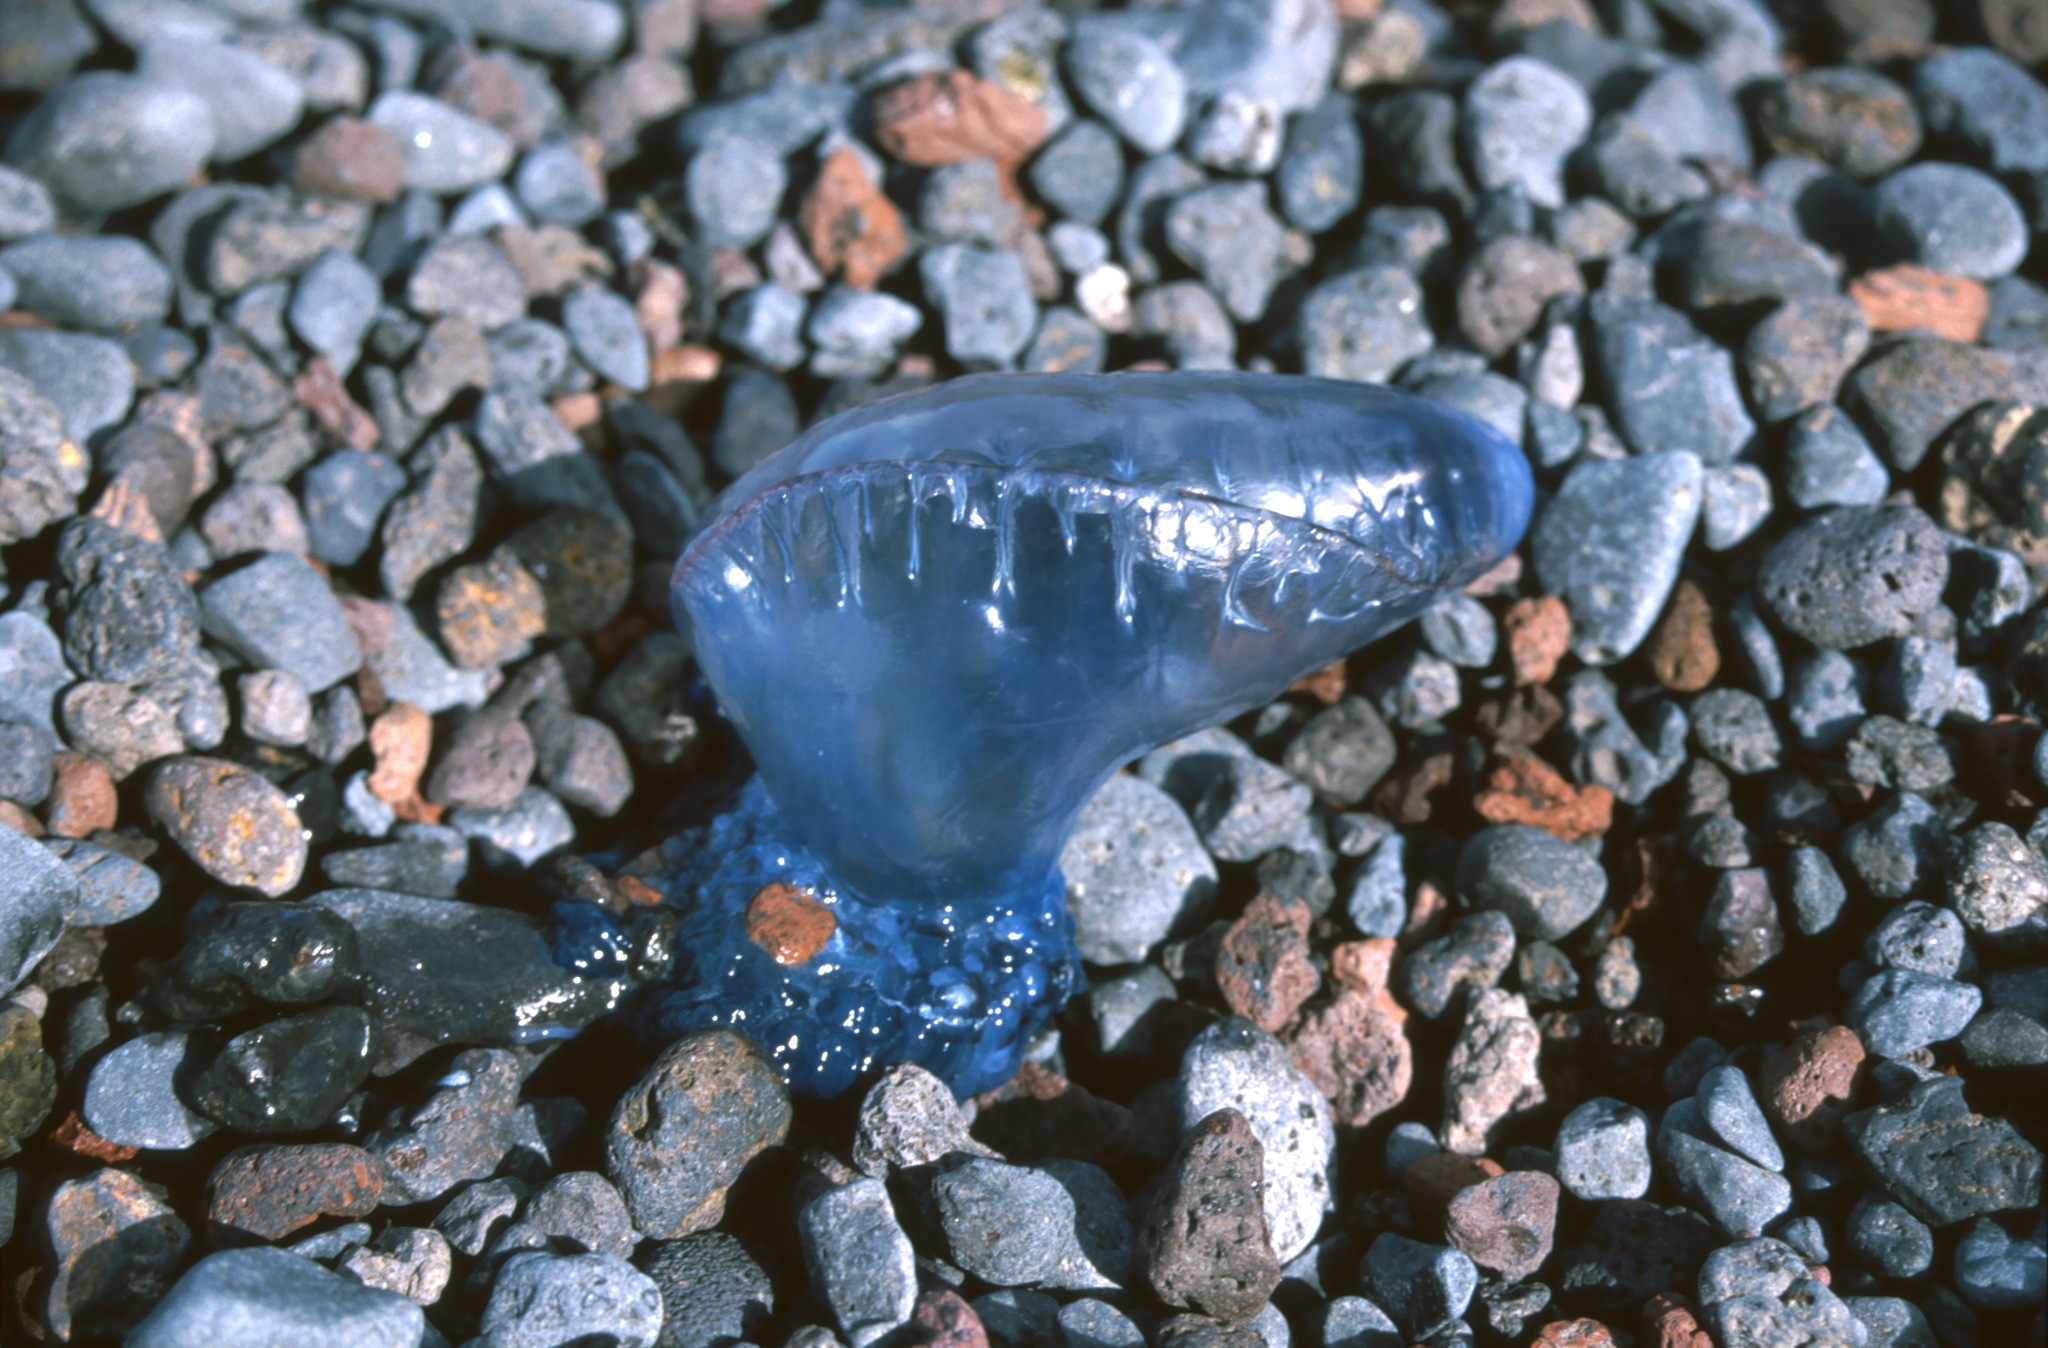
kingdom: Animalia
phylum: Cnidaria
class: Hydrozoa
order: Siphonophorae
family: Physaliidae
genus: Physalia
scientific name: Physalia physalis
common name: Portuguese man-of-war
